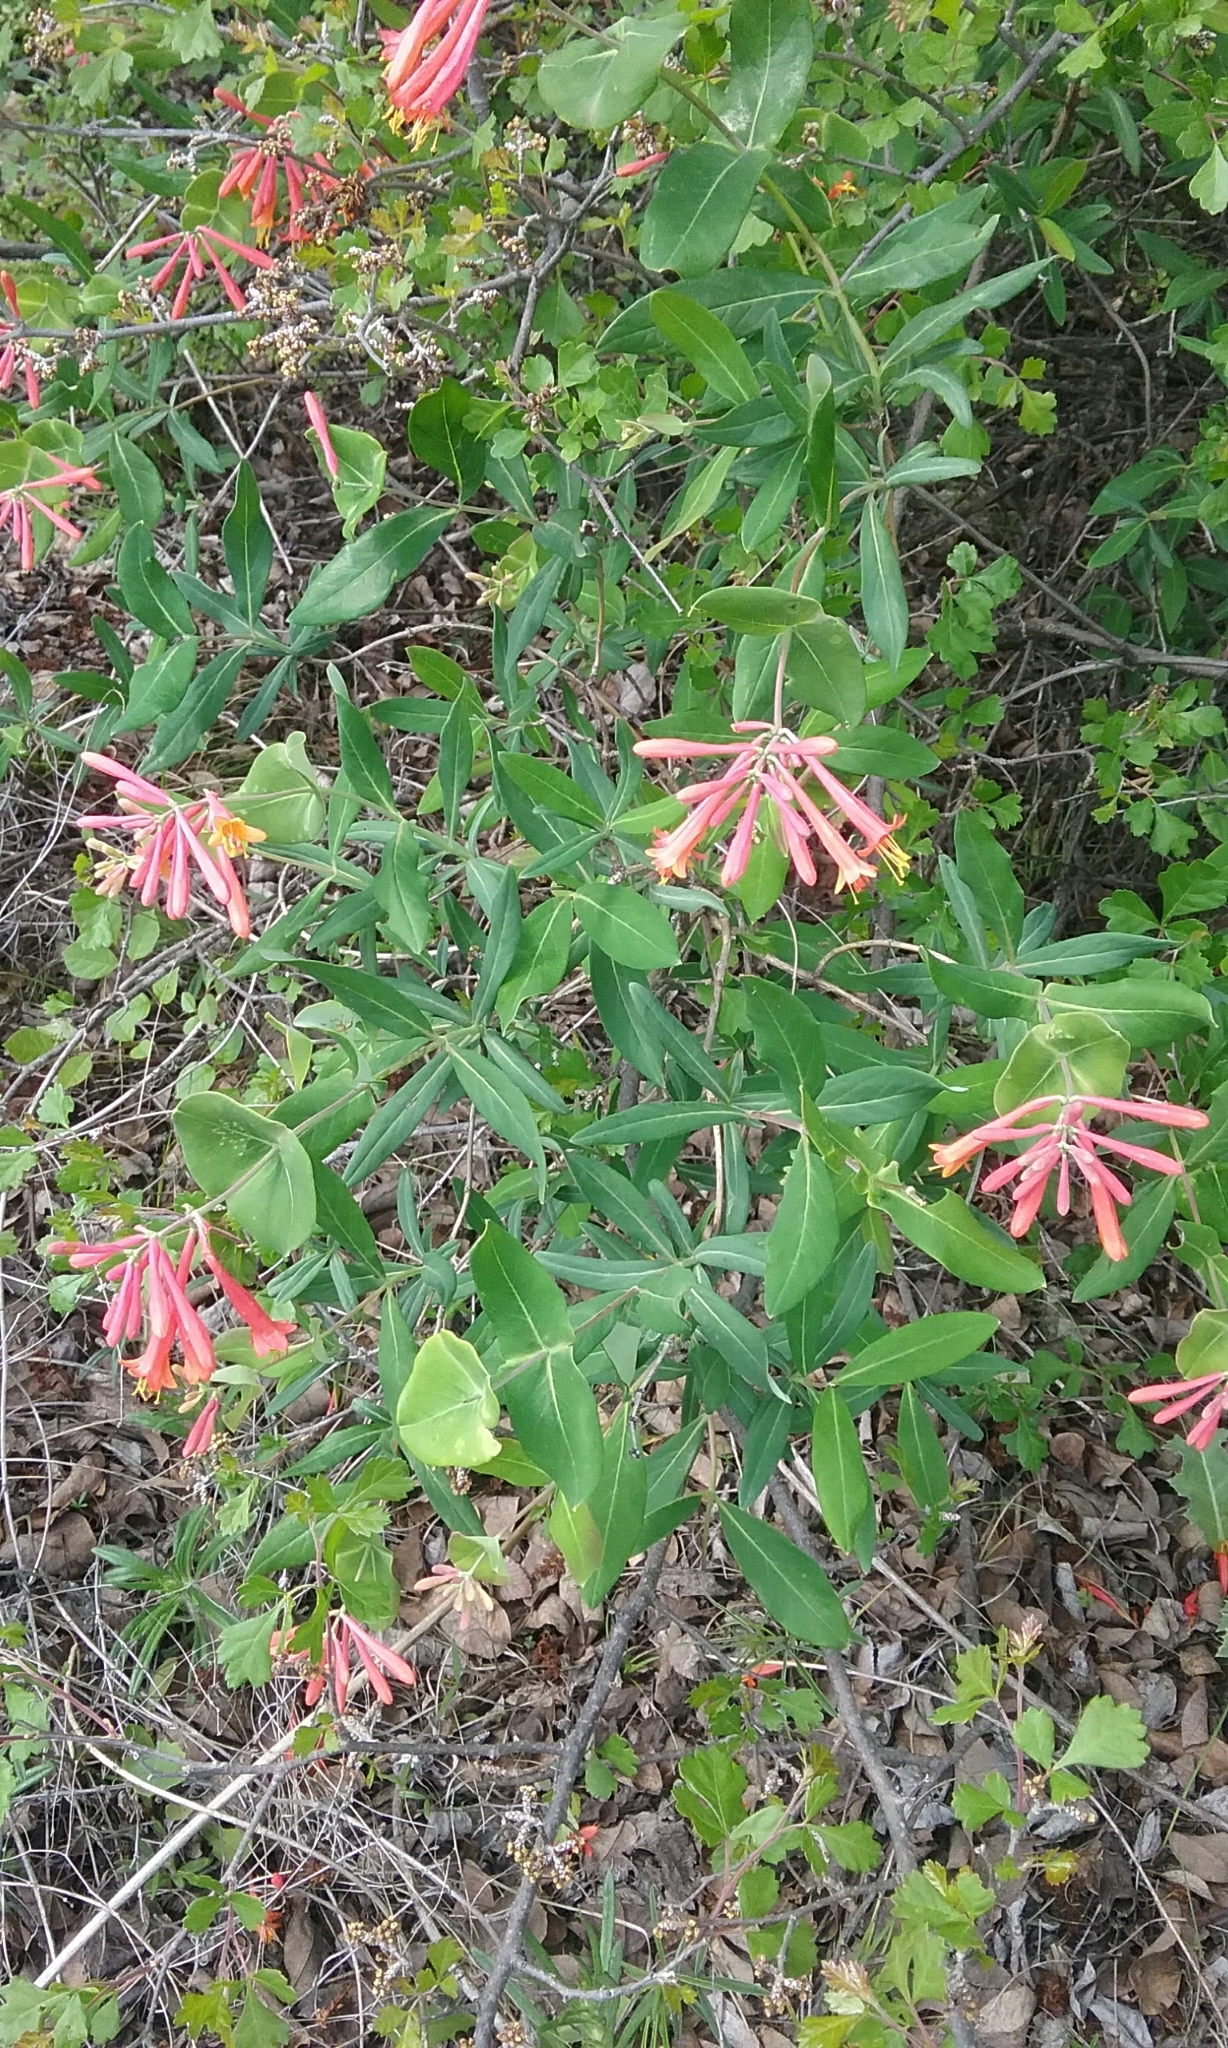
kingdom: Plantae
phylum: Tracheophyta
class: Magnoliopsida
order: Dipsacales
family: Caprifoliaceae
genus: Lonicera
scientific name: Lonicera sempervirens
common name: Coral honeysuckle
